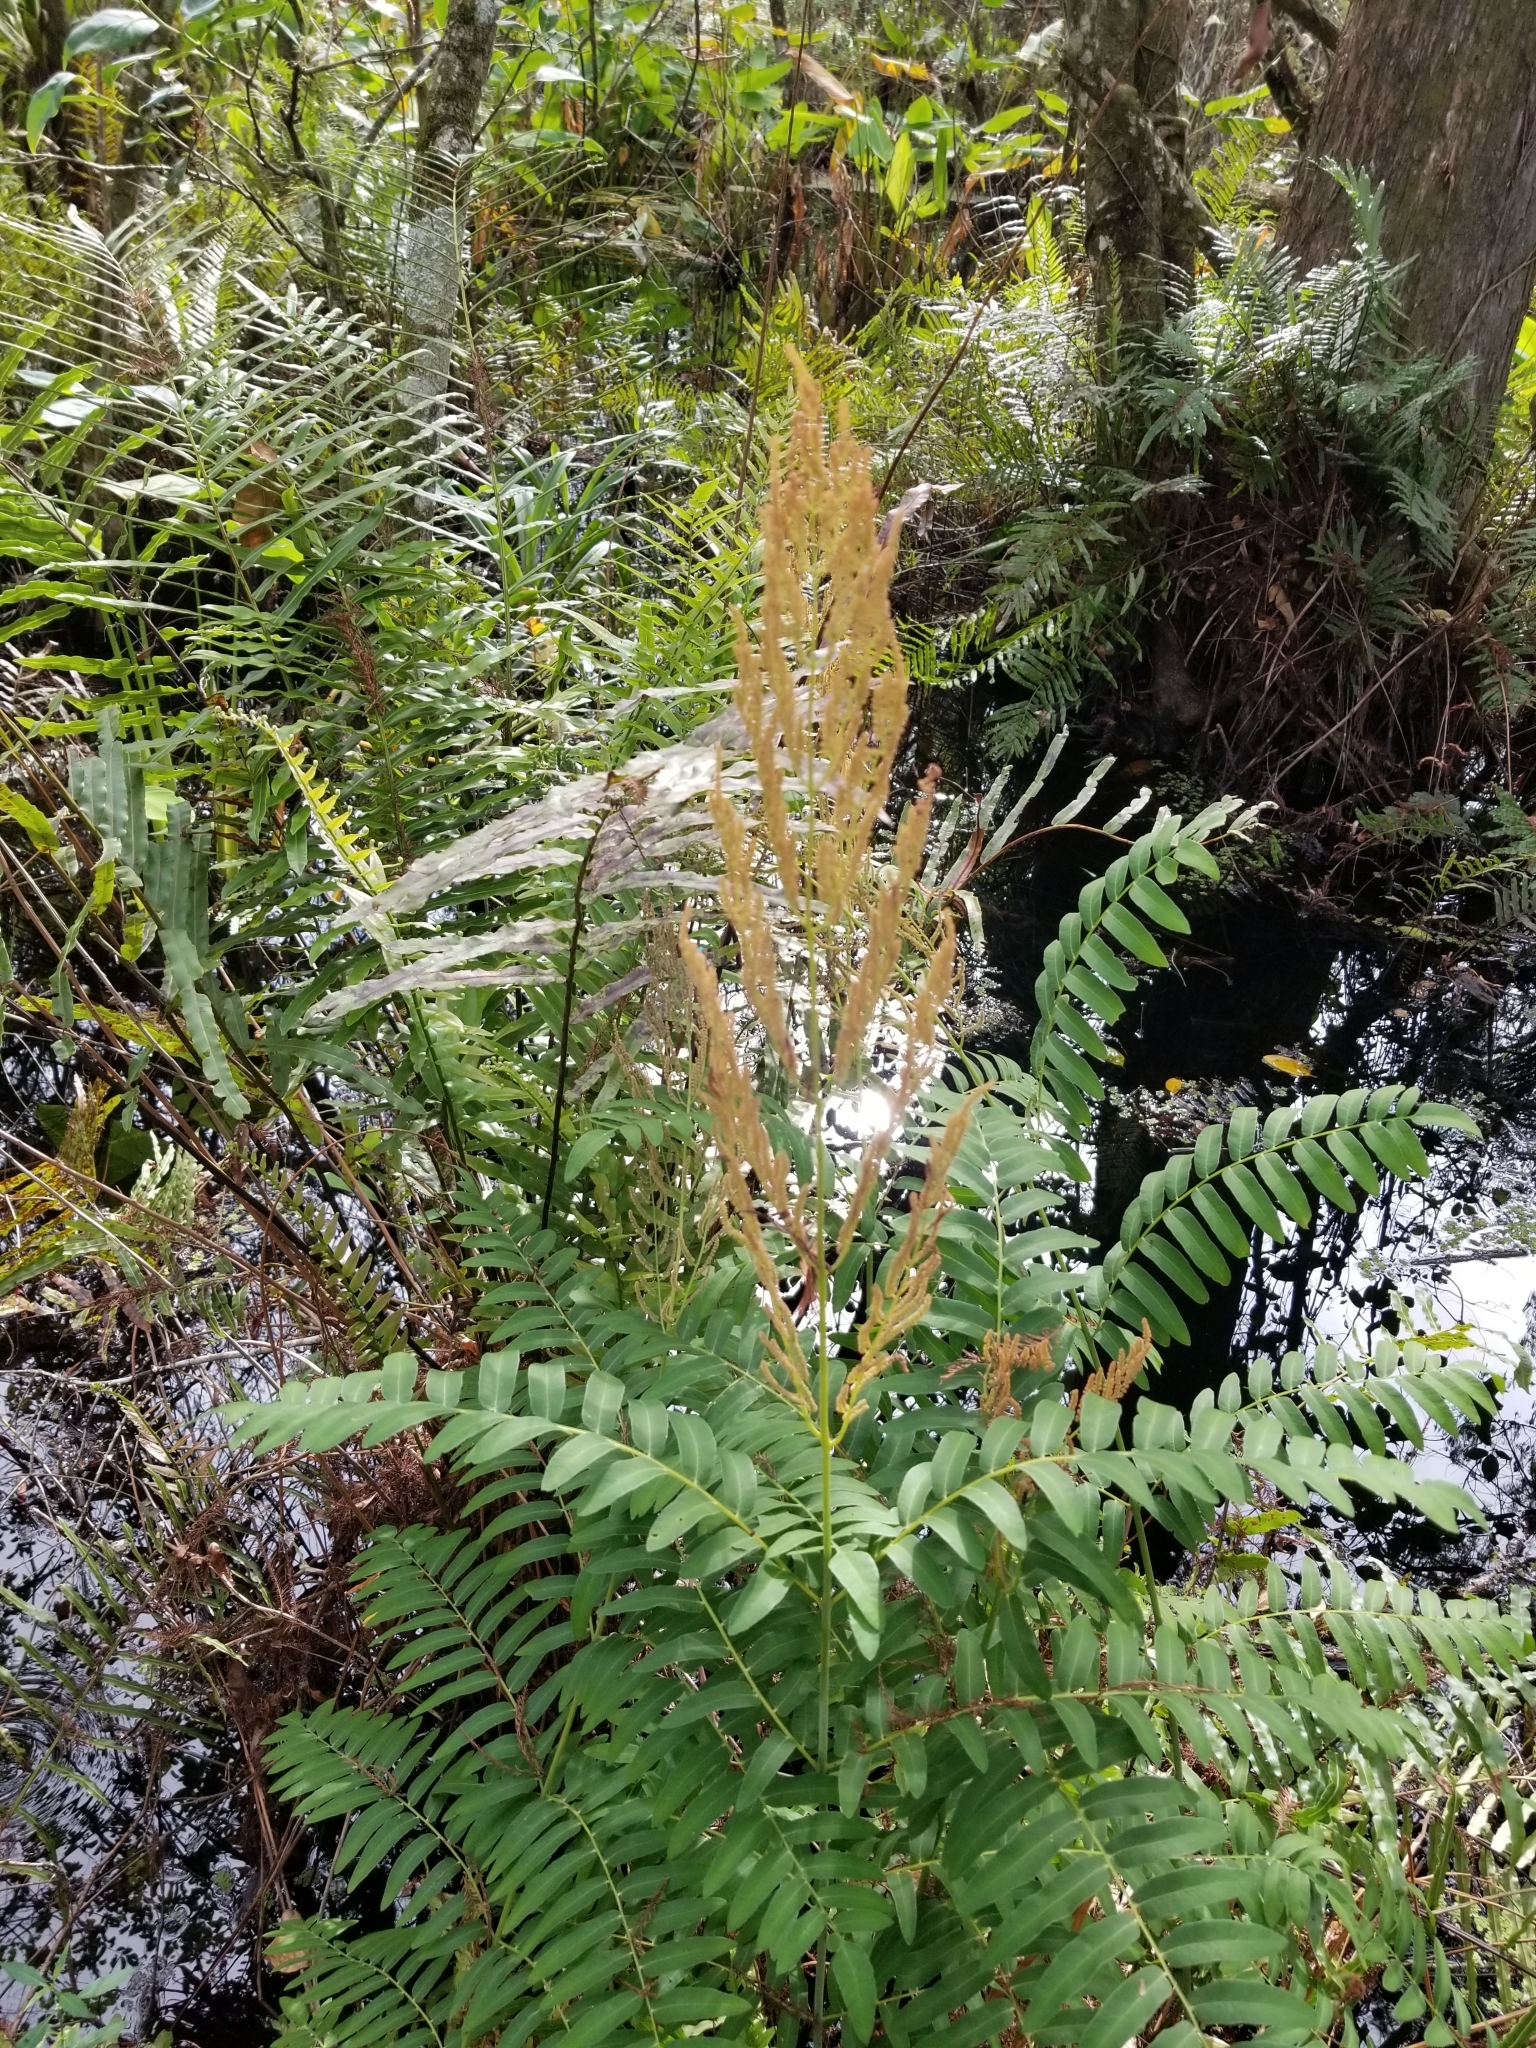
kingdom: Plantae
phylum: Tracheophyta
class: Polypodiopsida
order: Osmundales
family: Osmundaceae
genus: Osmunda
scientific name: Osmunda spectabilis
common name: American royal fern
